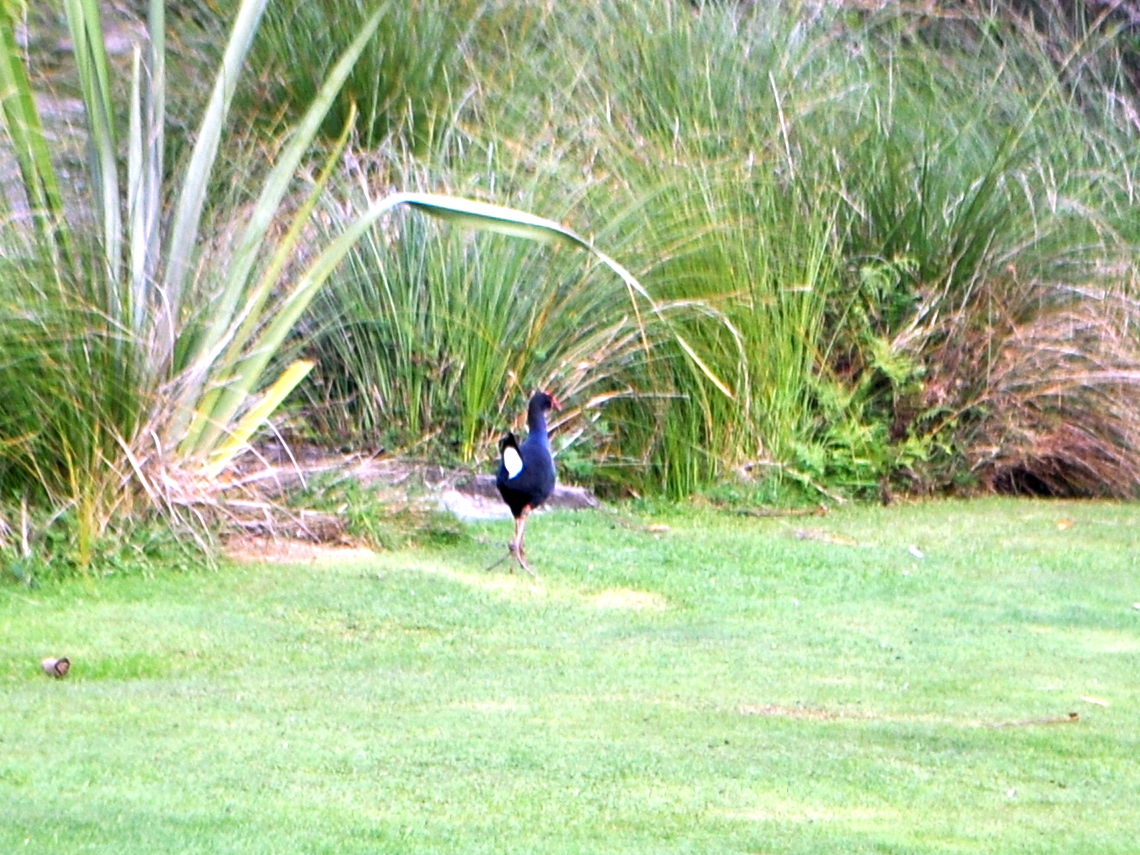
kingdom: Animalia
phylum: Chordata
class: Aves
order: Gruiformes
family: Rallidae
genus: Porphyrio
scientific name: Porphyrio melanotus
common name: Australasian swamphen
